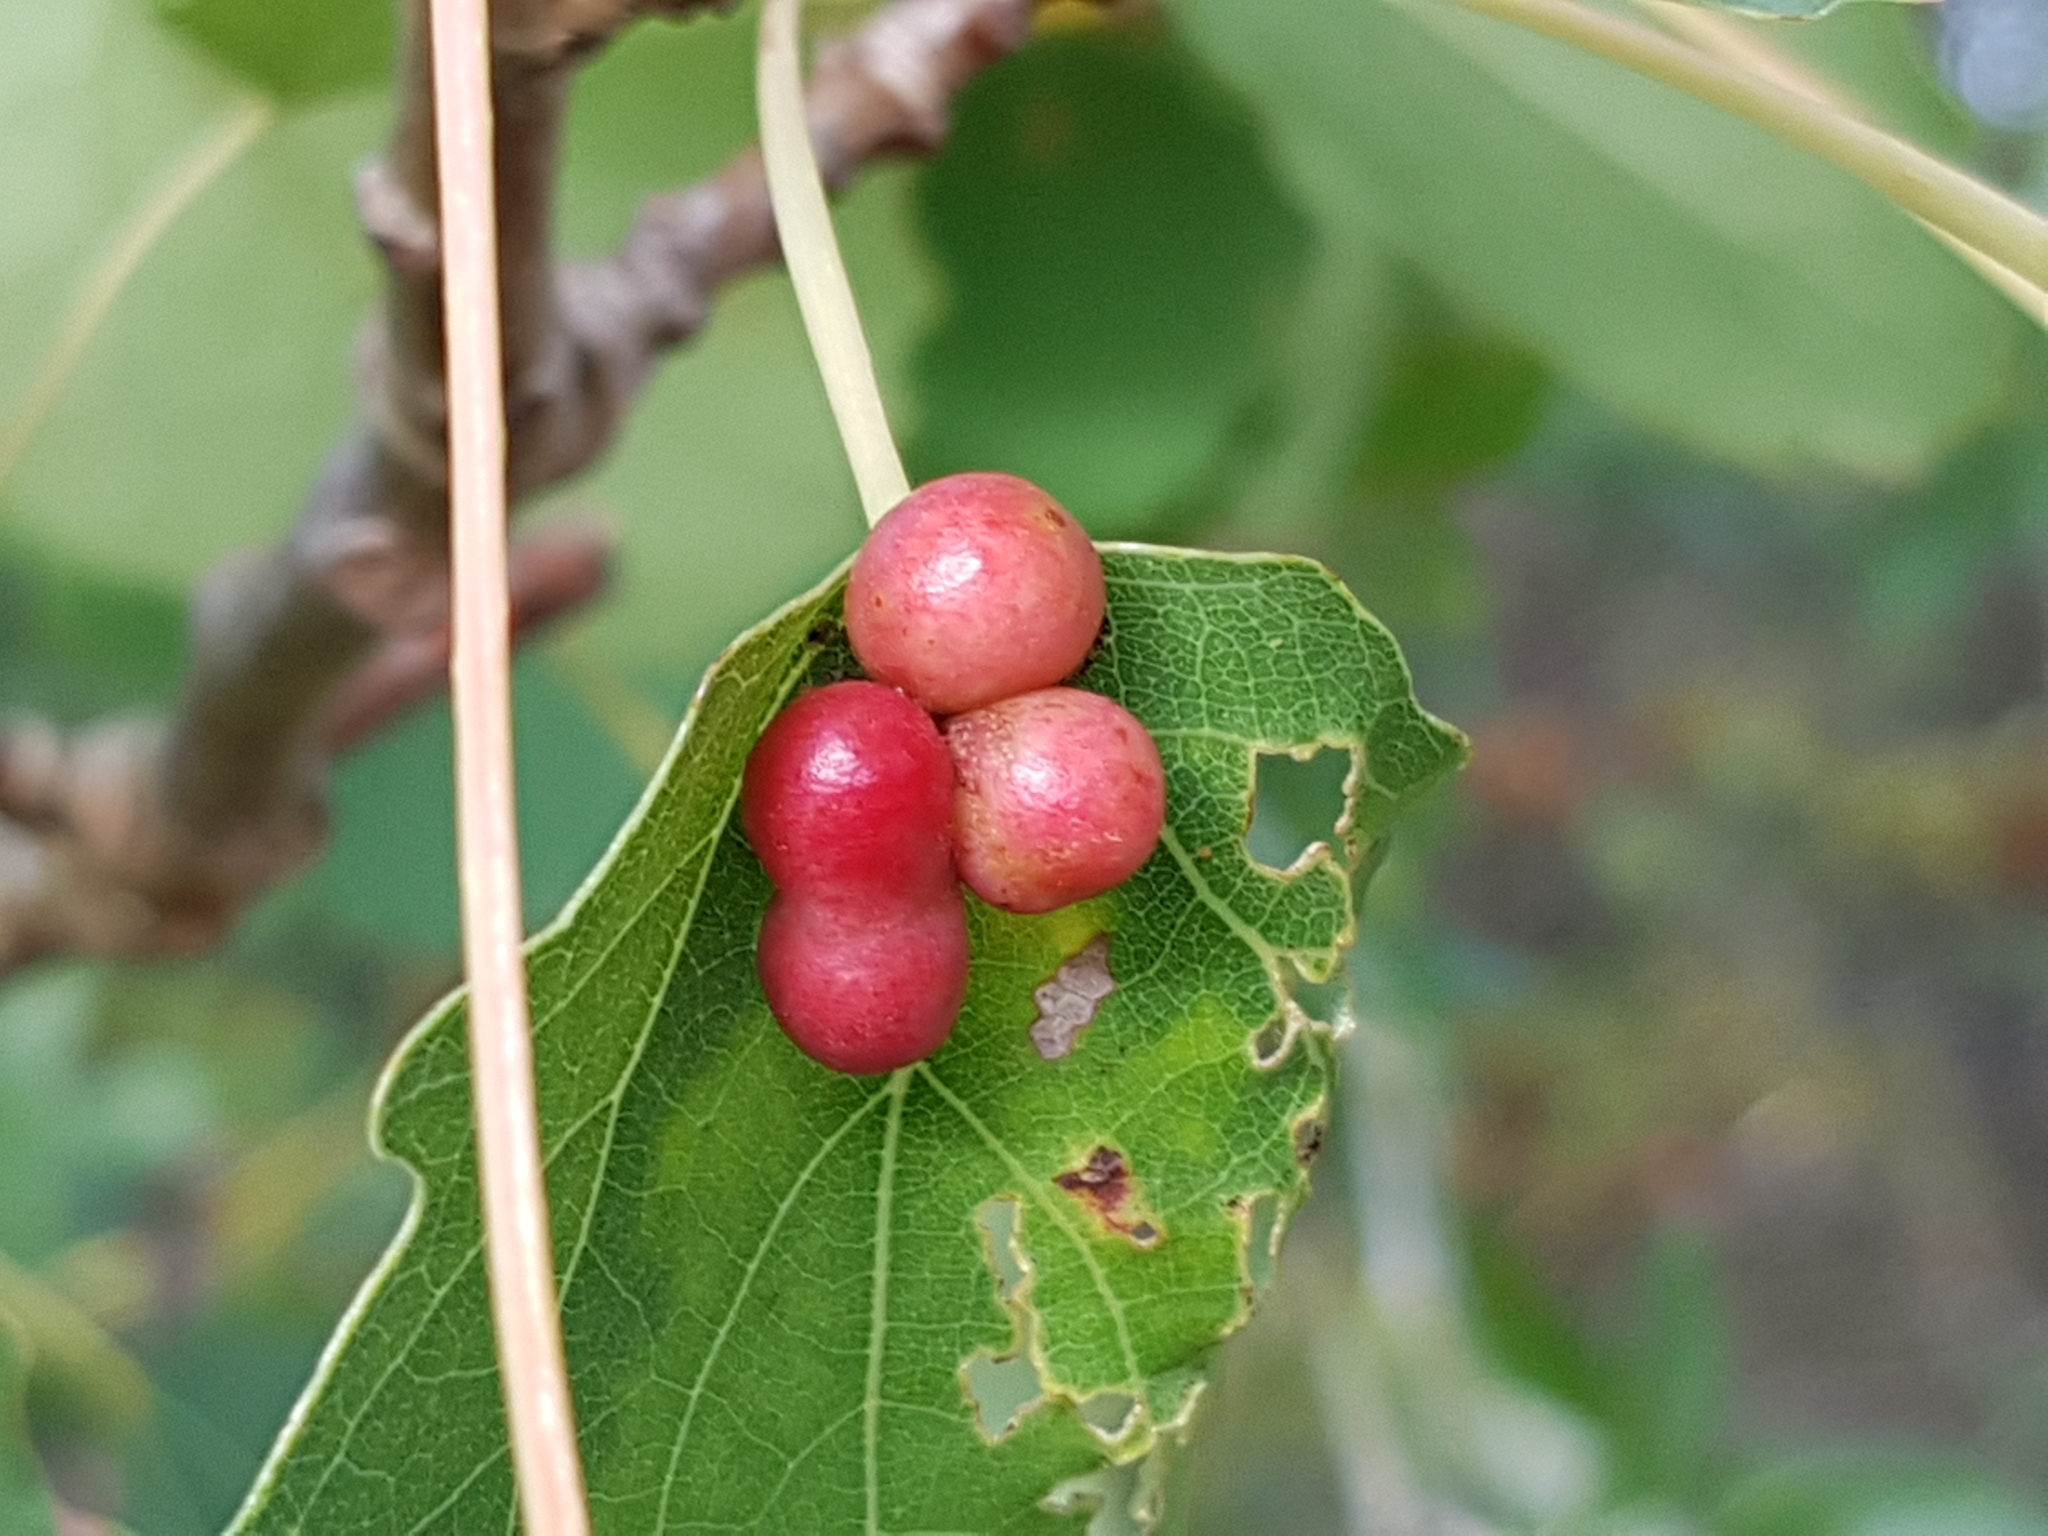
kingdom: Animalia
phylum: Arthropoda
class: Insecta
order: Diptera
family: Cecidomyiidae
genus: Harmandiola
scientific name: Harmandiola tremulae
